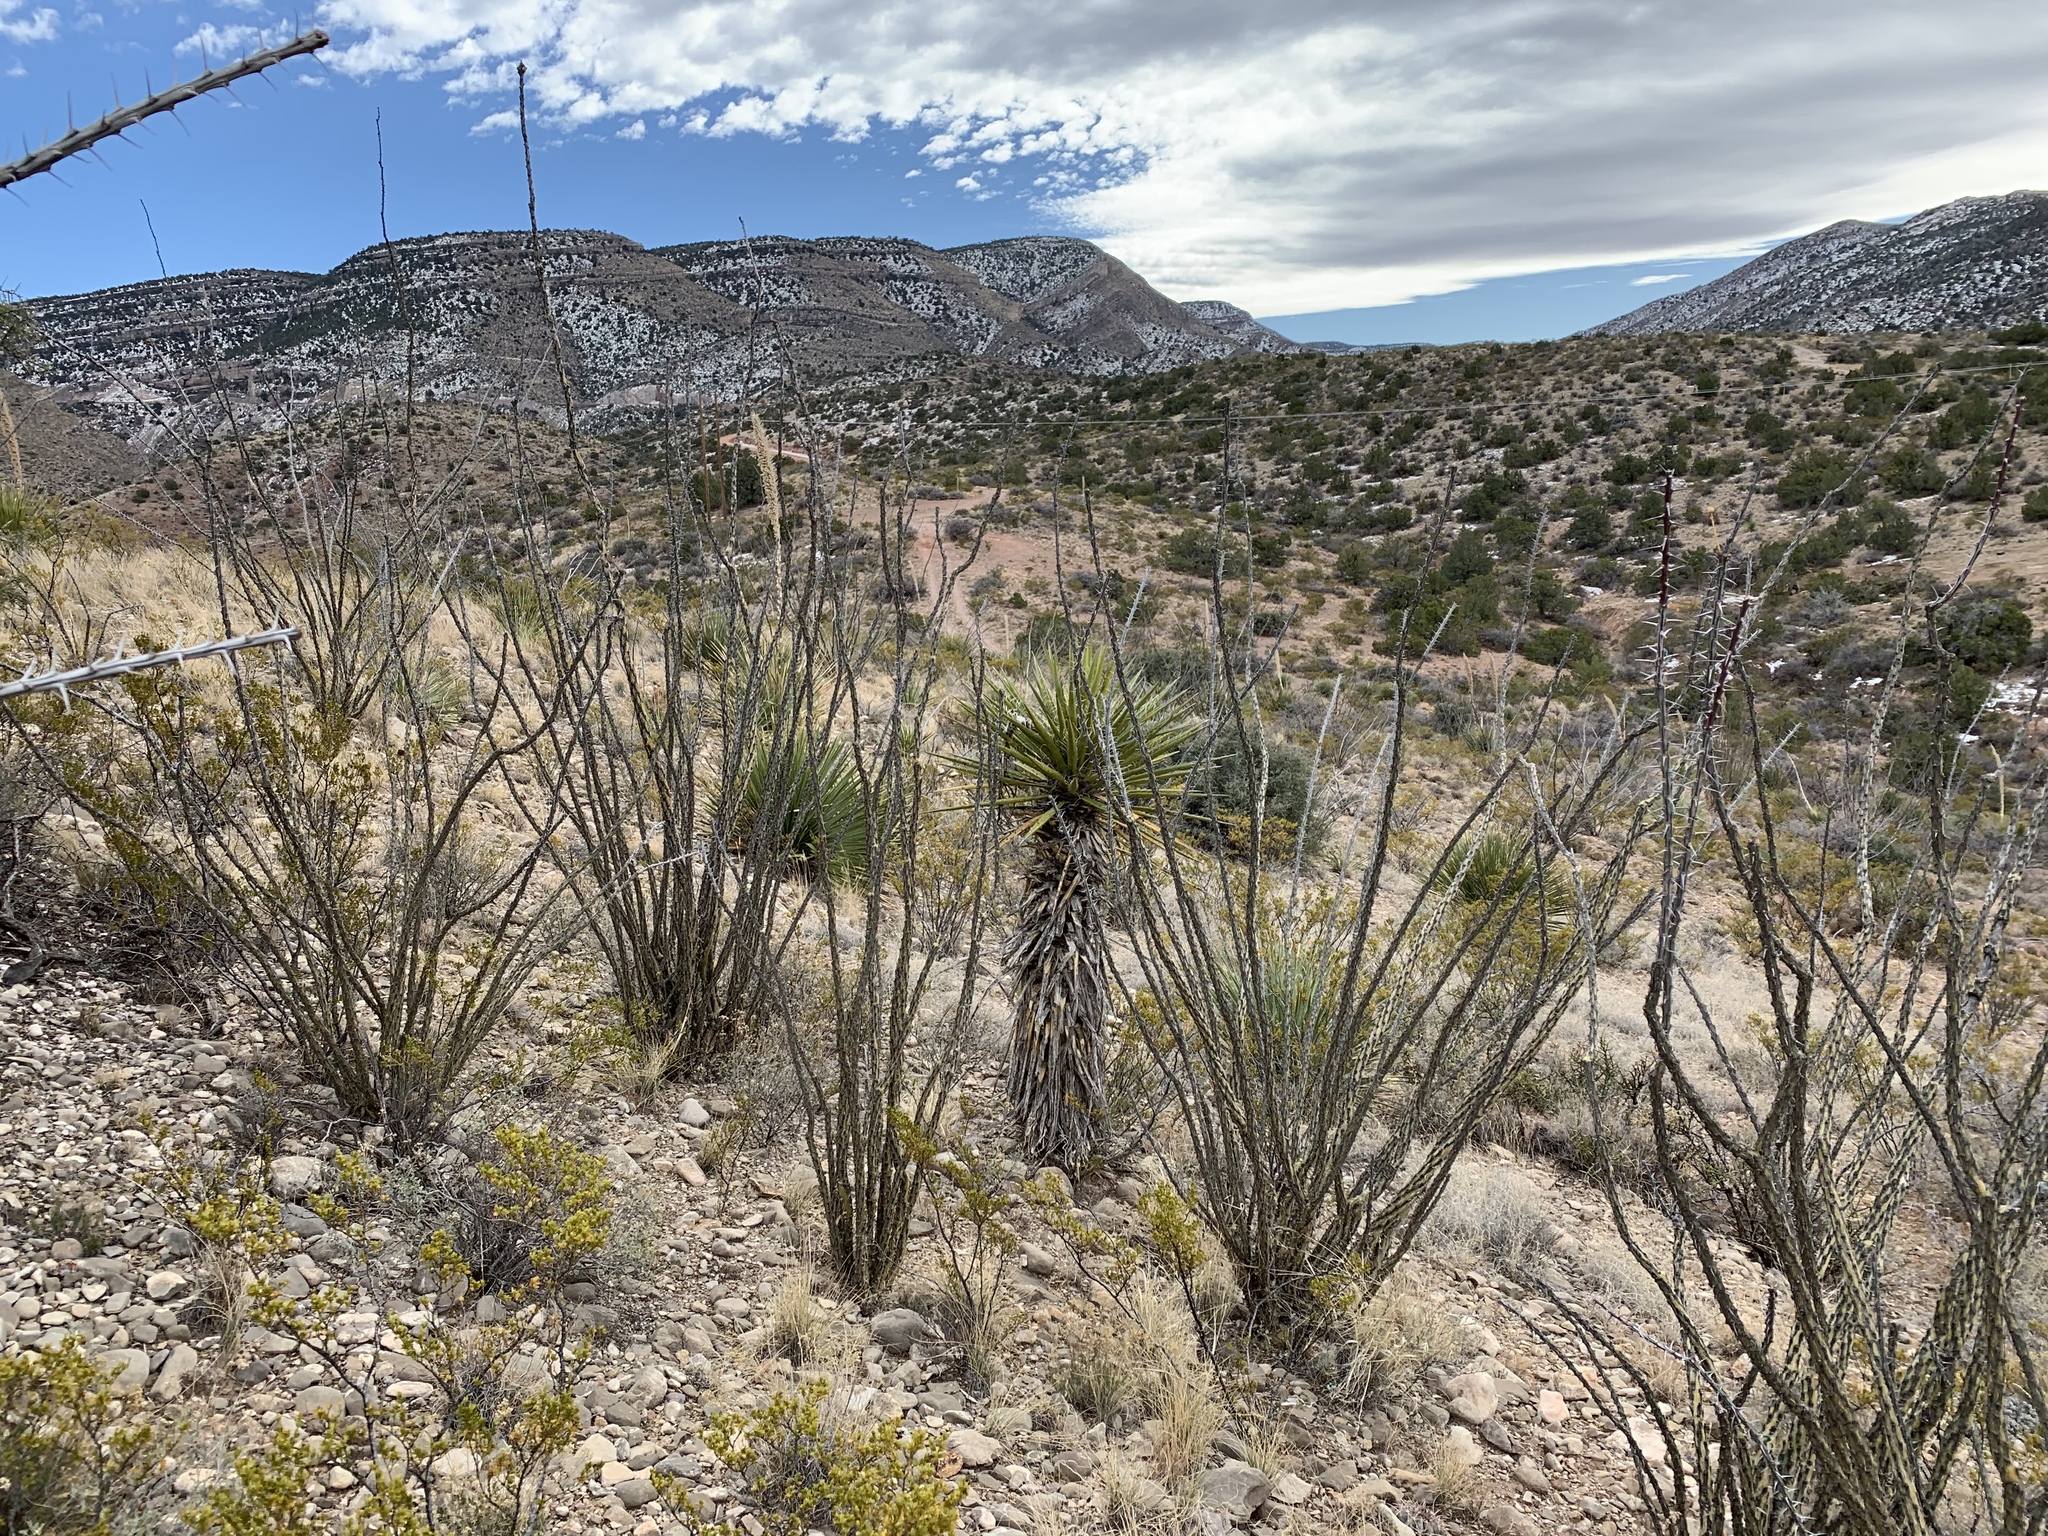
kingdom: Plantae
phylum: Tracheophyta
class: Magnoliopsida
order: Ericales
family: Fouquieriaceae
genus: Fouquieria
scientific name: Fouquieria splendens
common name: Vine-cactus
